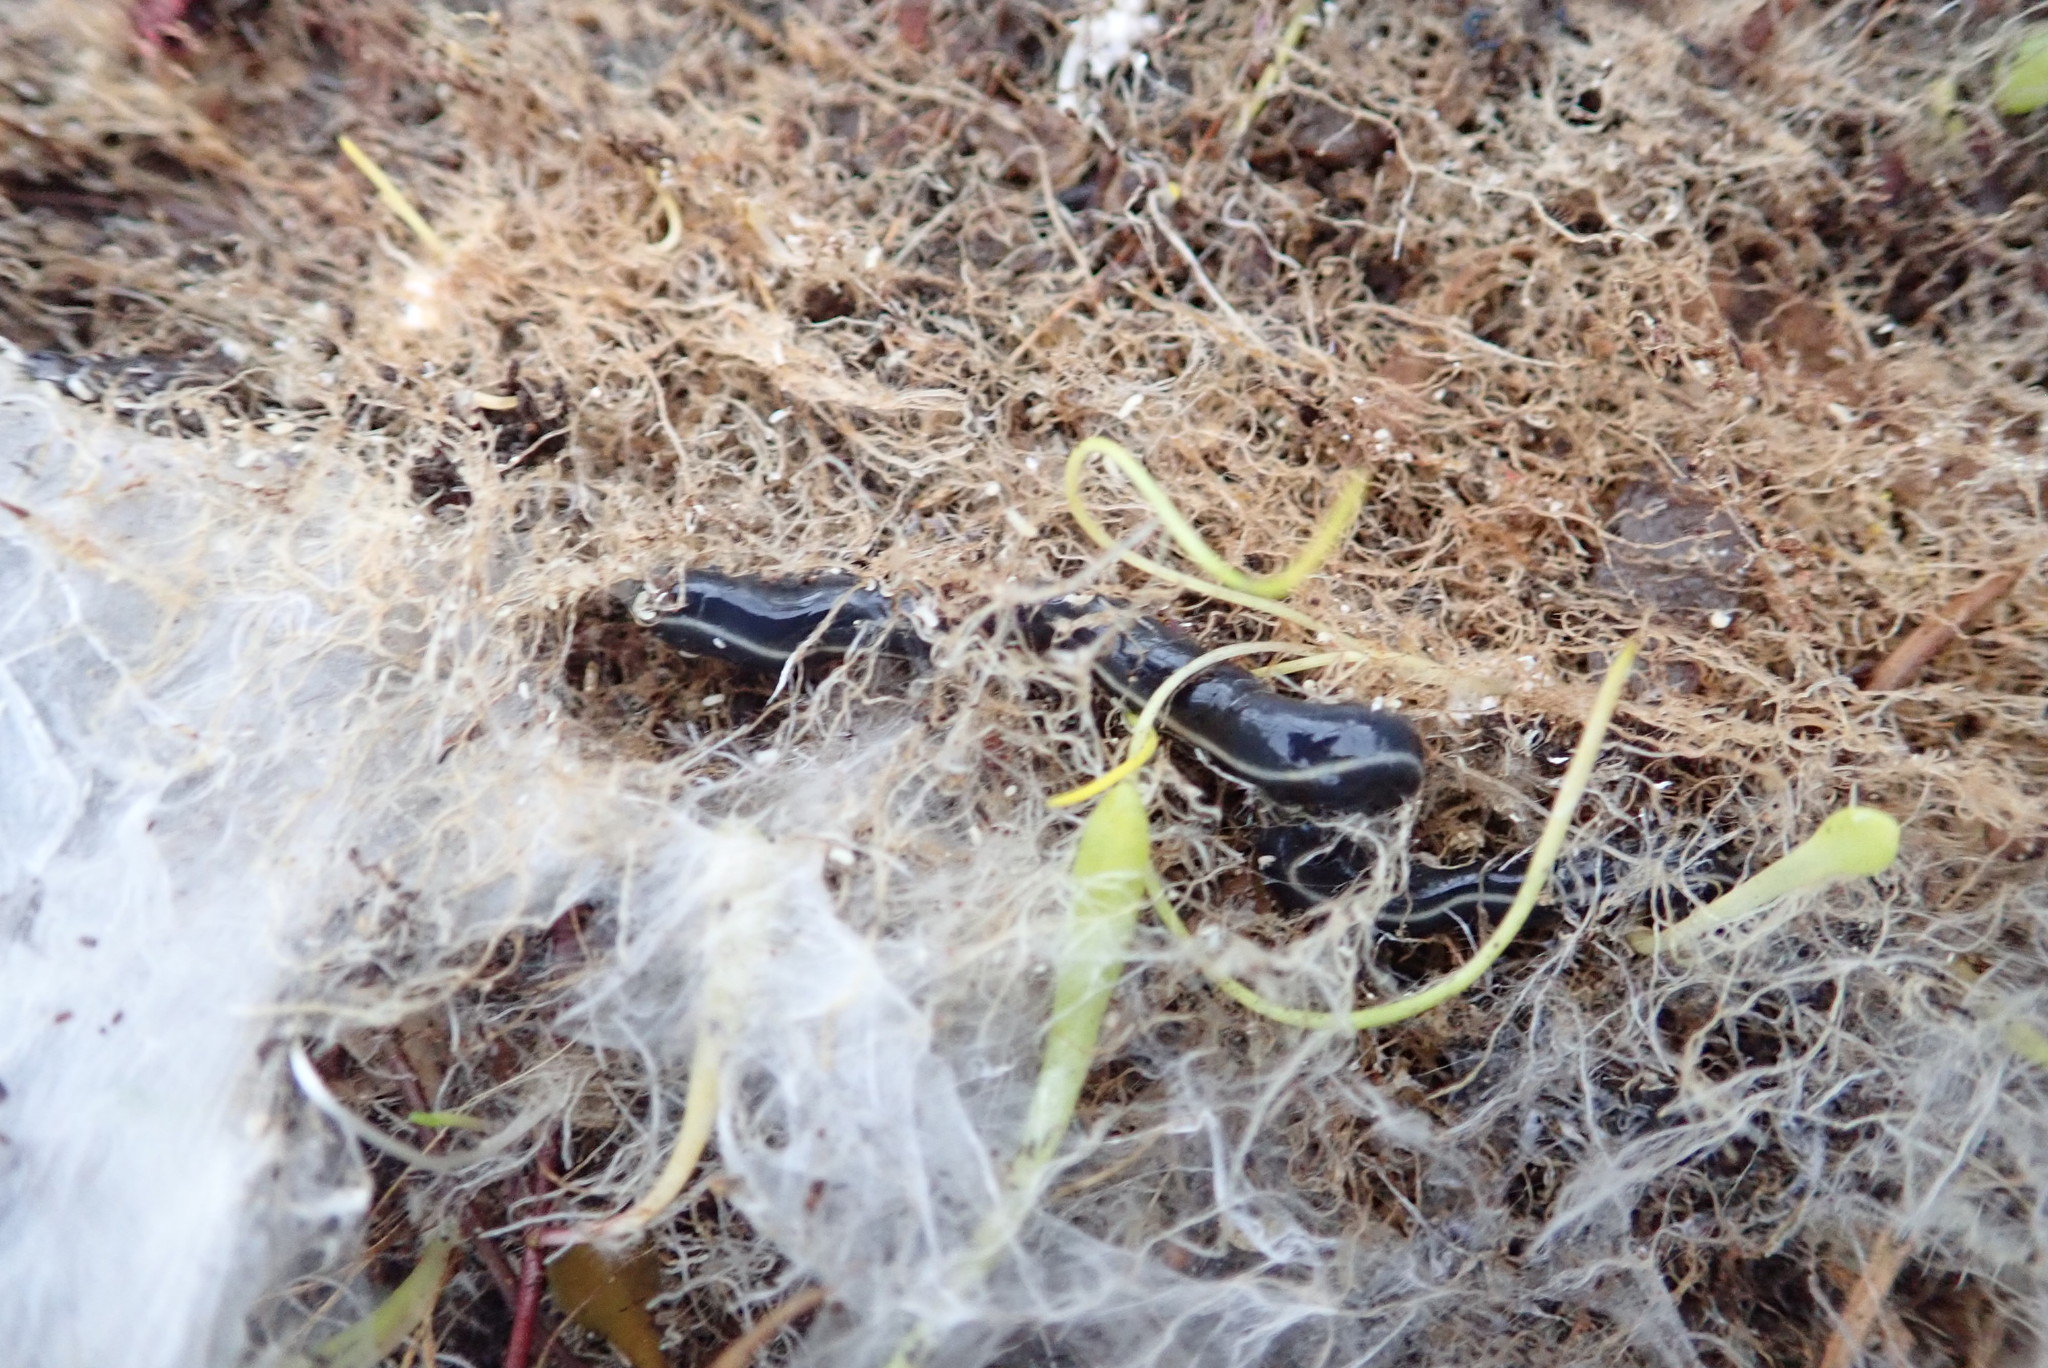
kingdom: Animalia
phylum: Platyhelminthes
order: Tricladida
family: Geoplanidae
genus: Caenoplana
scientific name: Caenoplana coerulea
